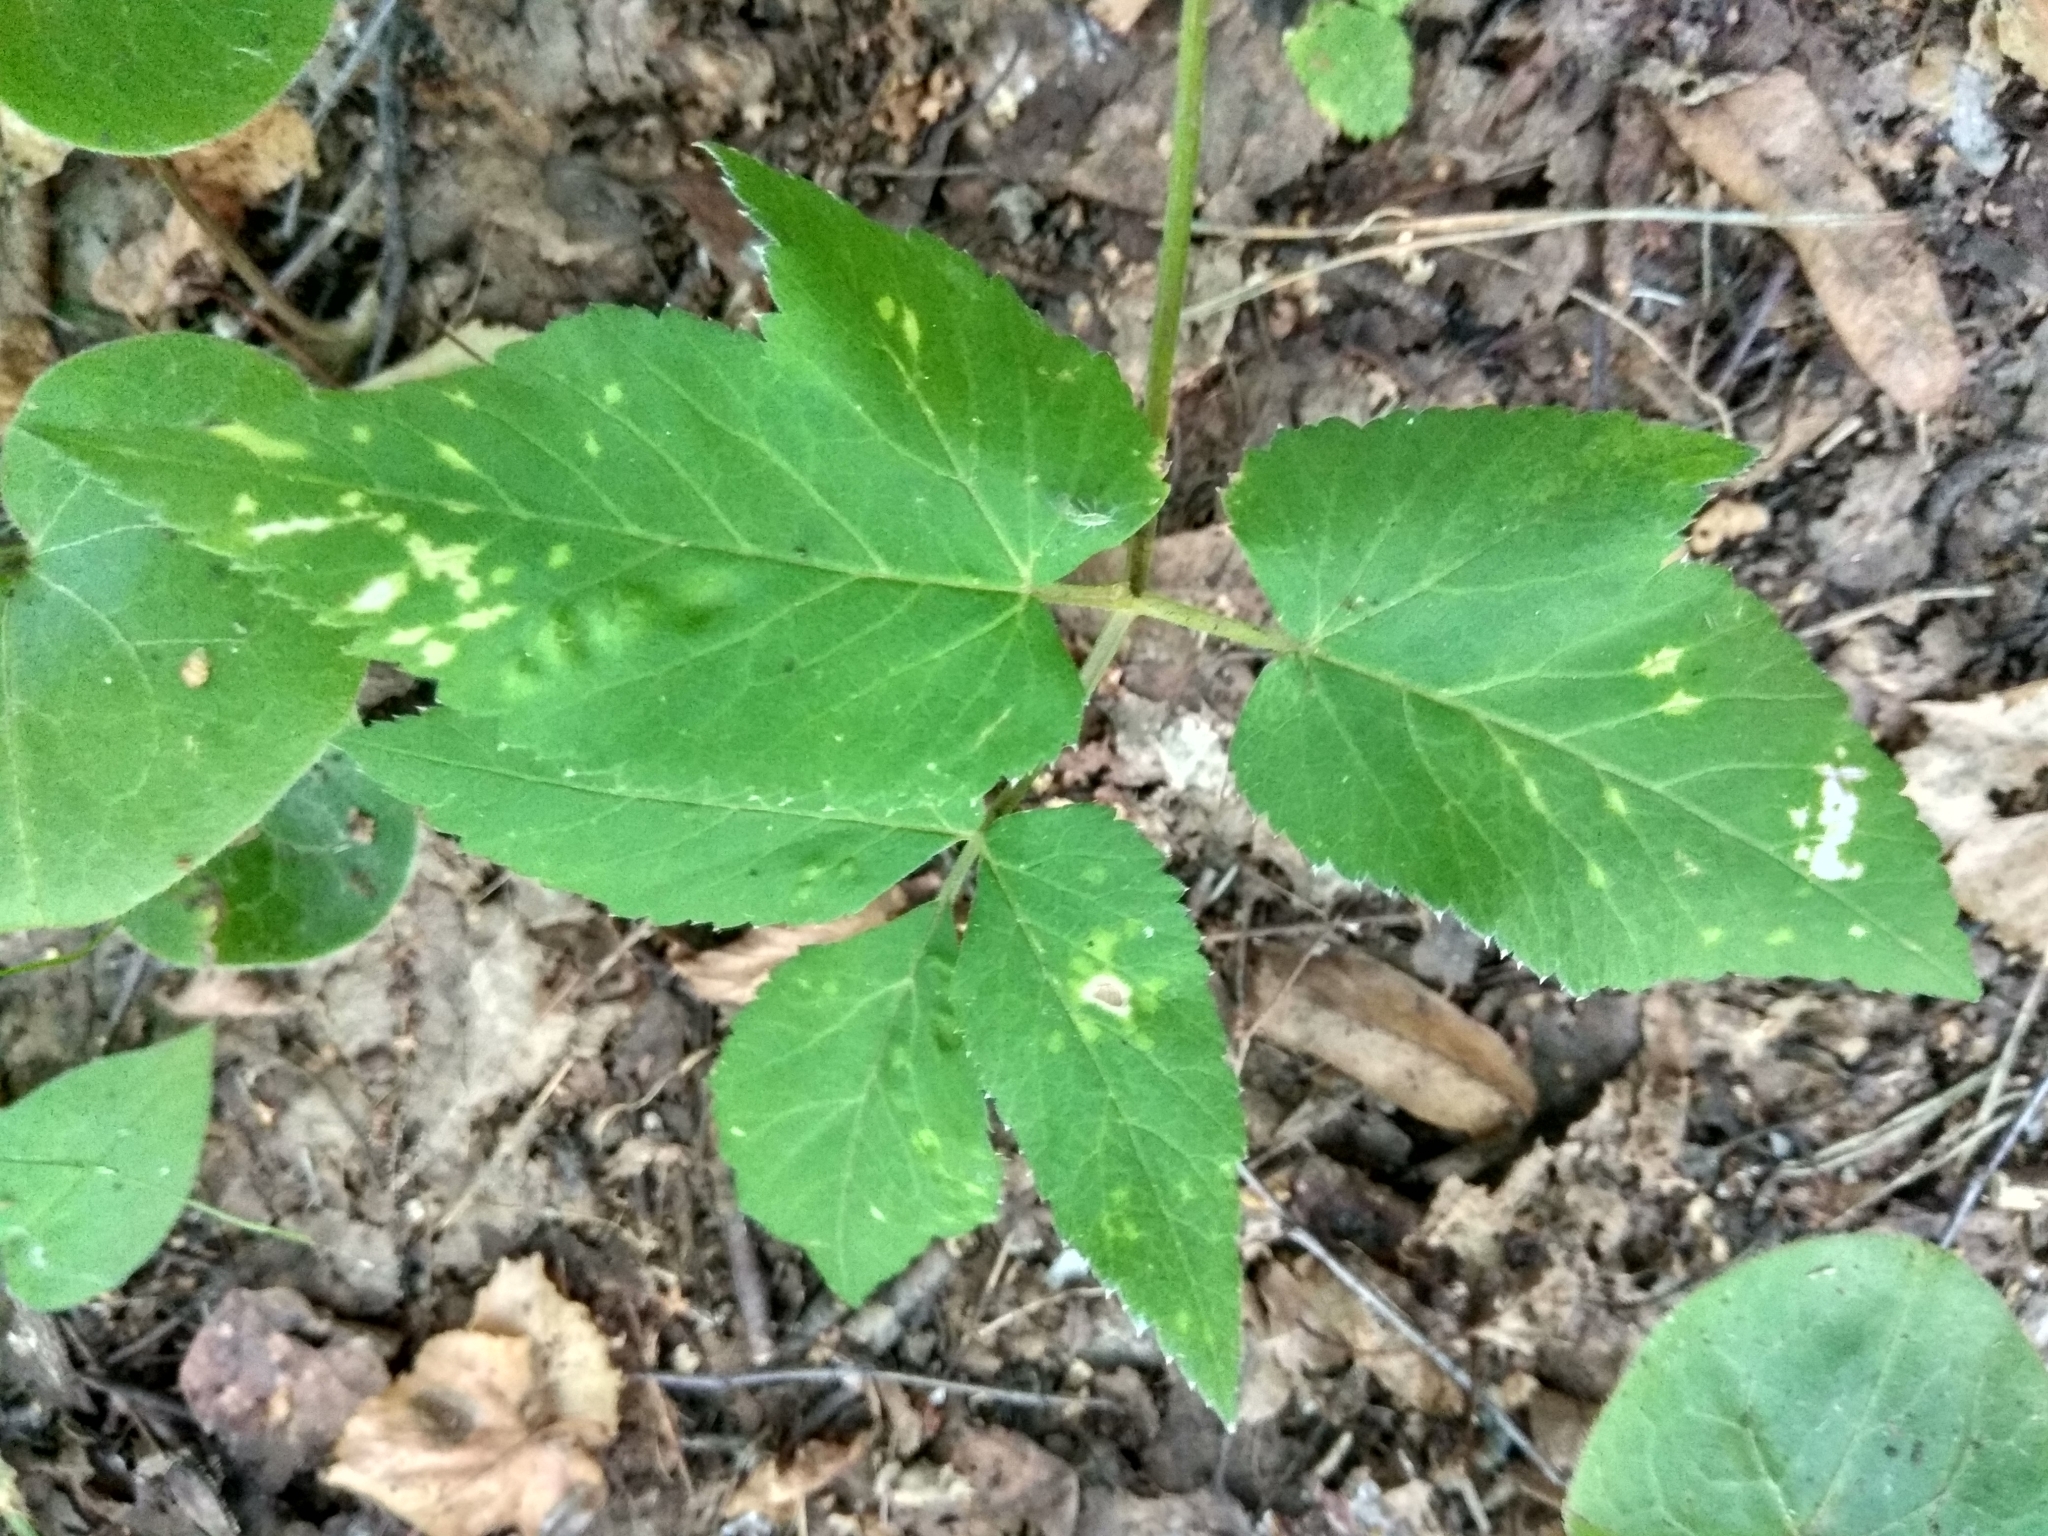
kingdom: Plantae
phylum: Tracheophyta
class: Magnoliopsida
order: Apiales
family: Apiaceae
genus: Aegopodium
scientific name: Aegopodium podagraria
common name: Ground-elder
